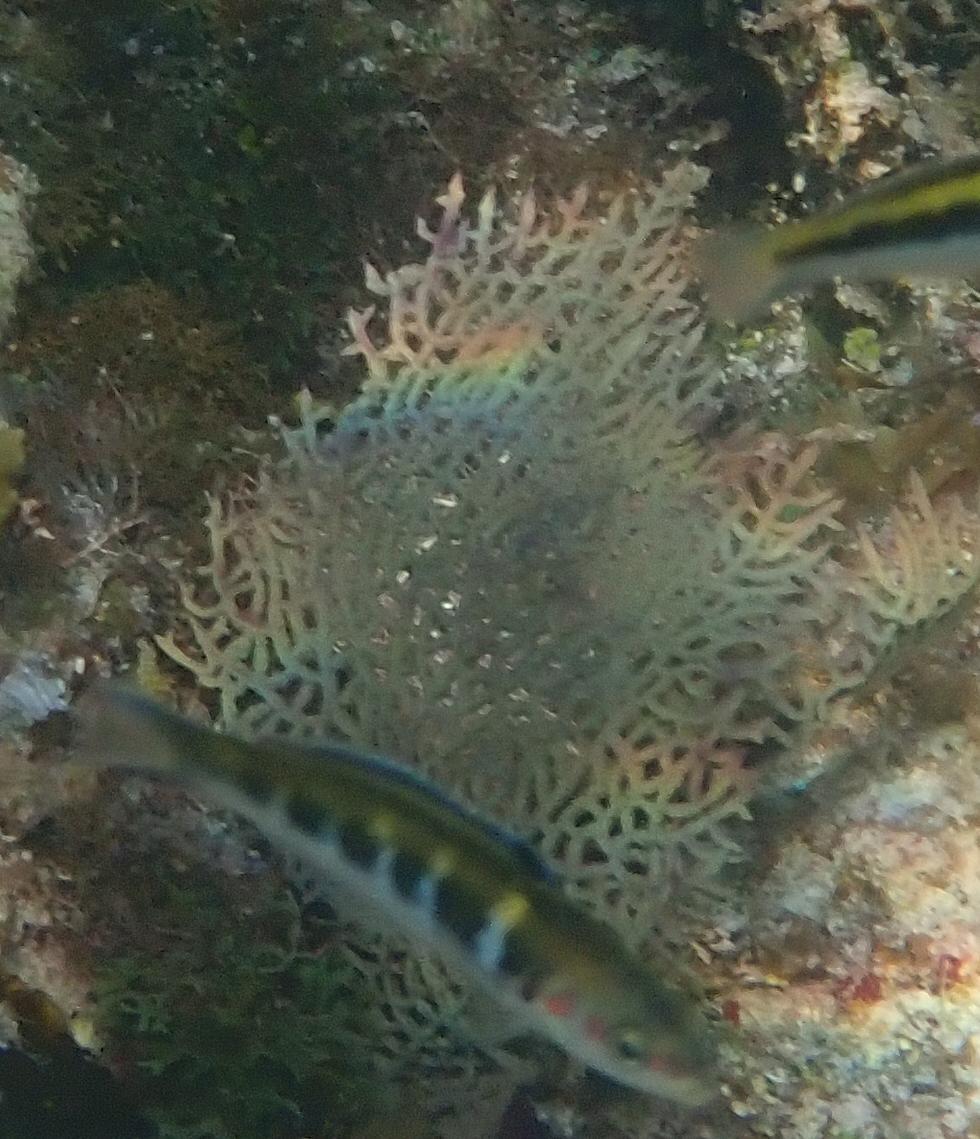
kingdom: Animalia
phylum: Cnidaria
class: Anthozoa
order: Malacalcyonacea
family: Gorgoniidae
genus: Gorgonia
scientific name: Gorgonia ventalina
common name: Common sea fan
